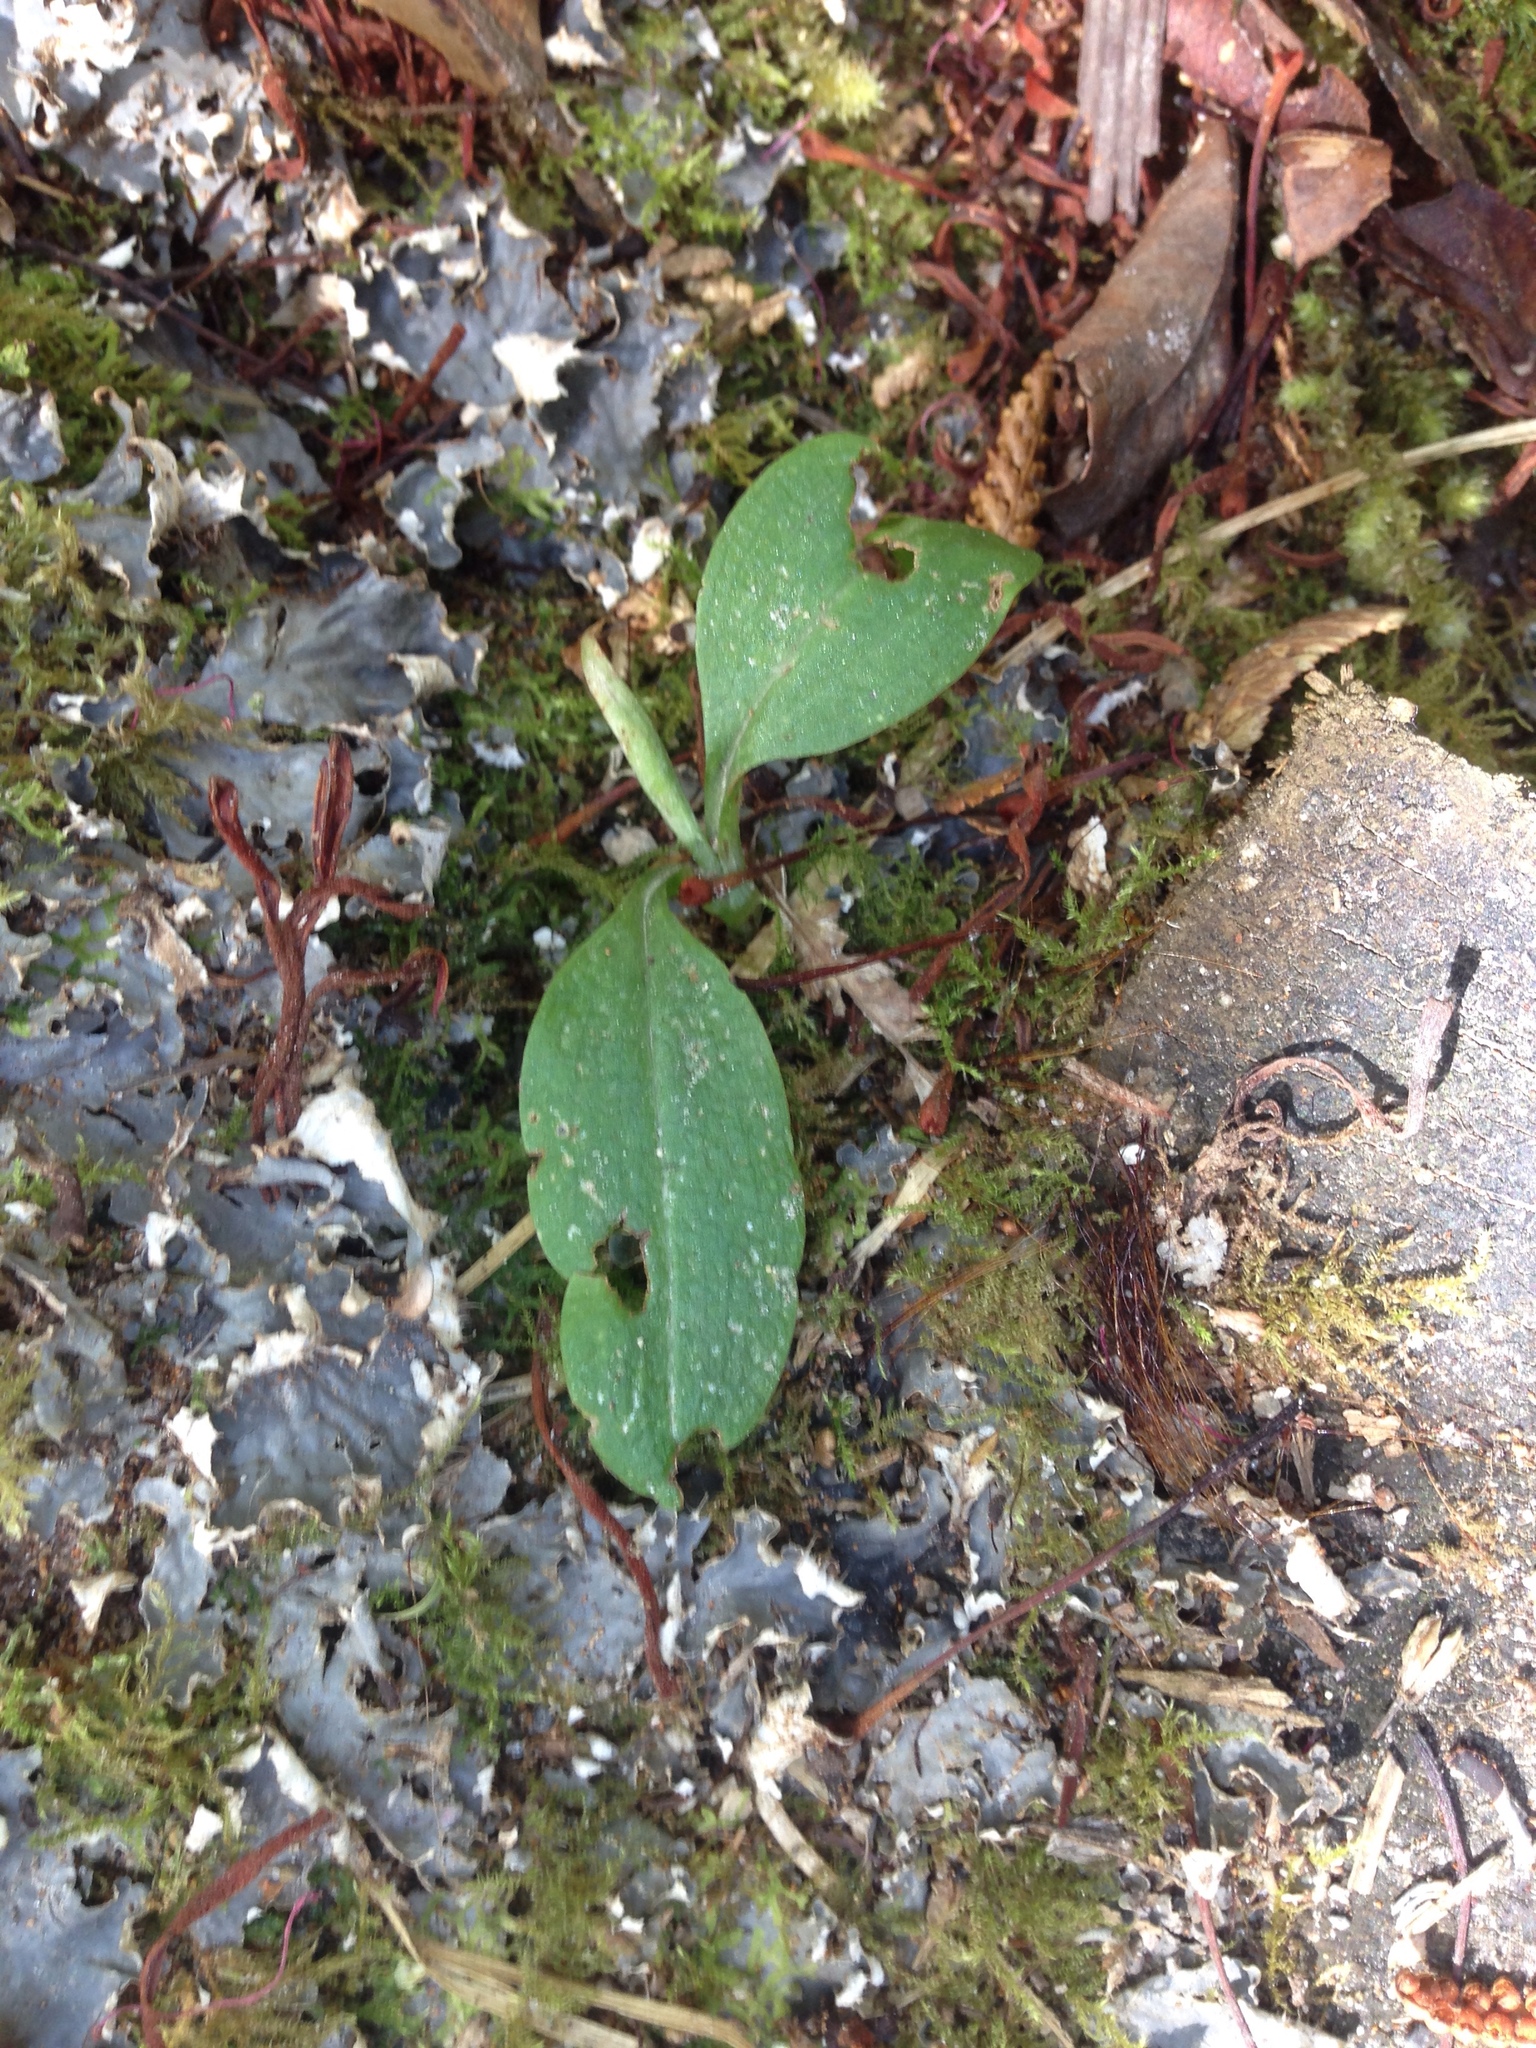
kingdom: Plantae
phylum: Tracheophyta
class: Liliopsida
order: Asparagales
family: Orchidaceae
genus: Chiloglottis
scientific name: Chiloglottis cornuta
